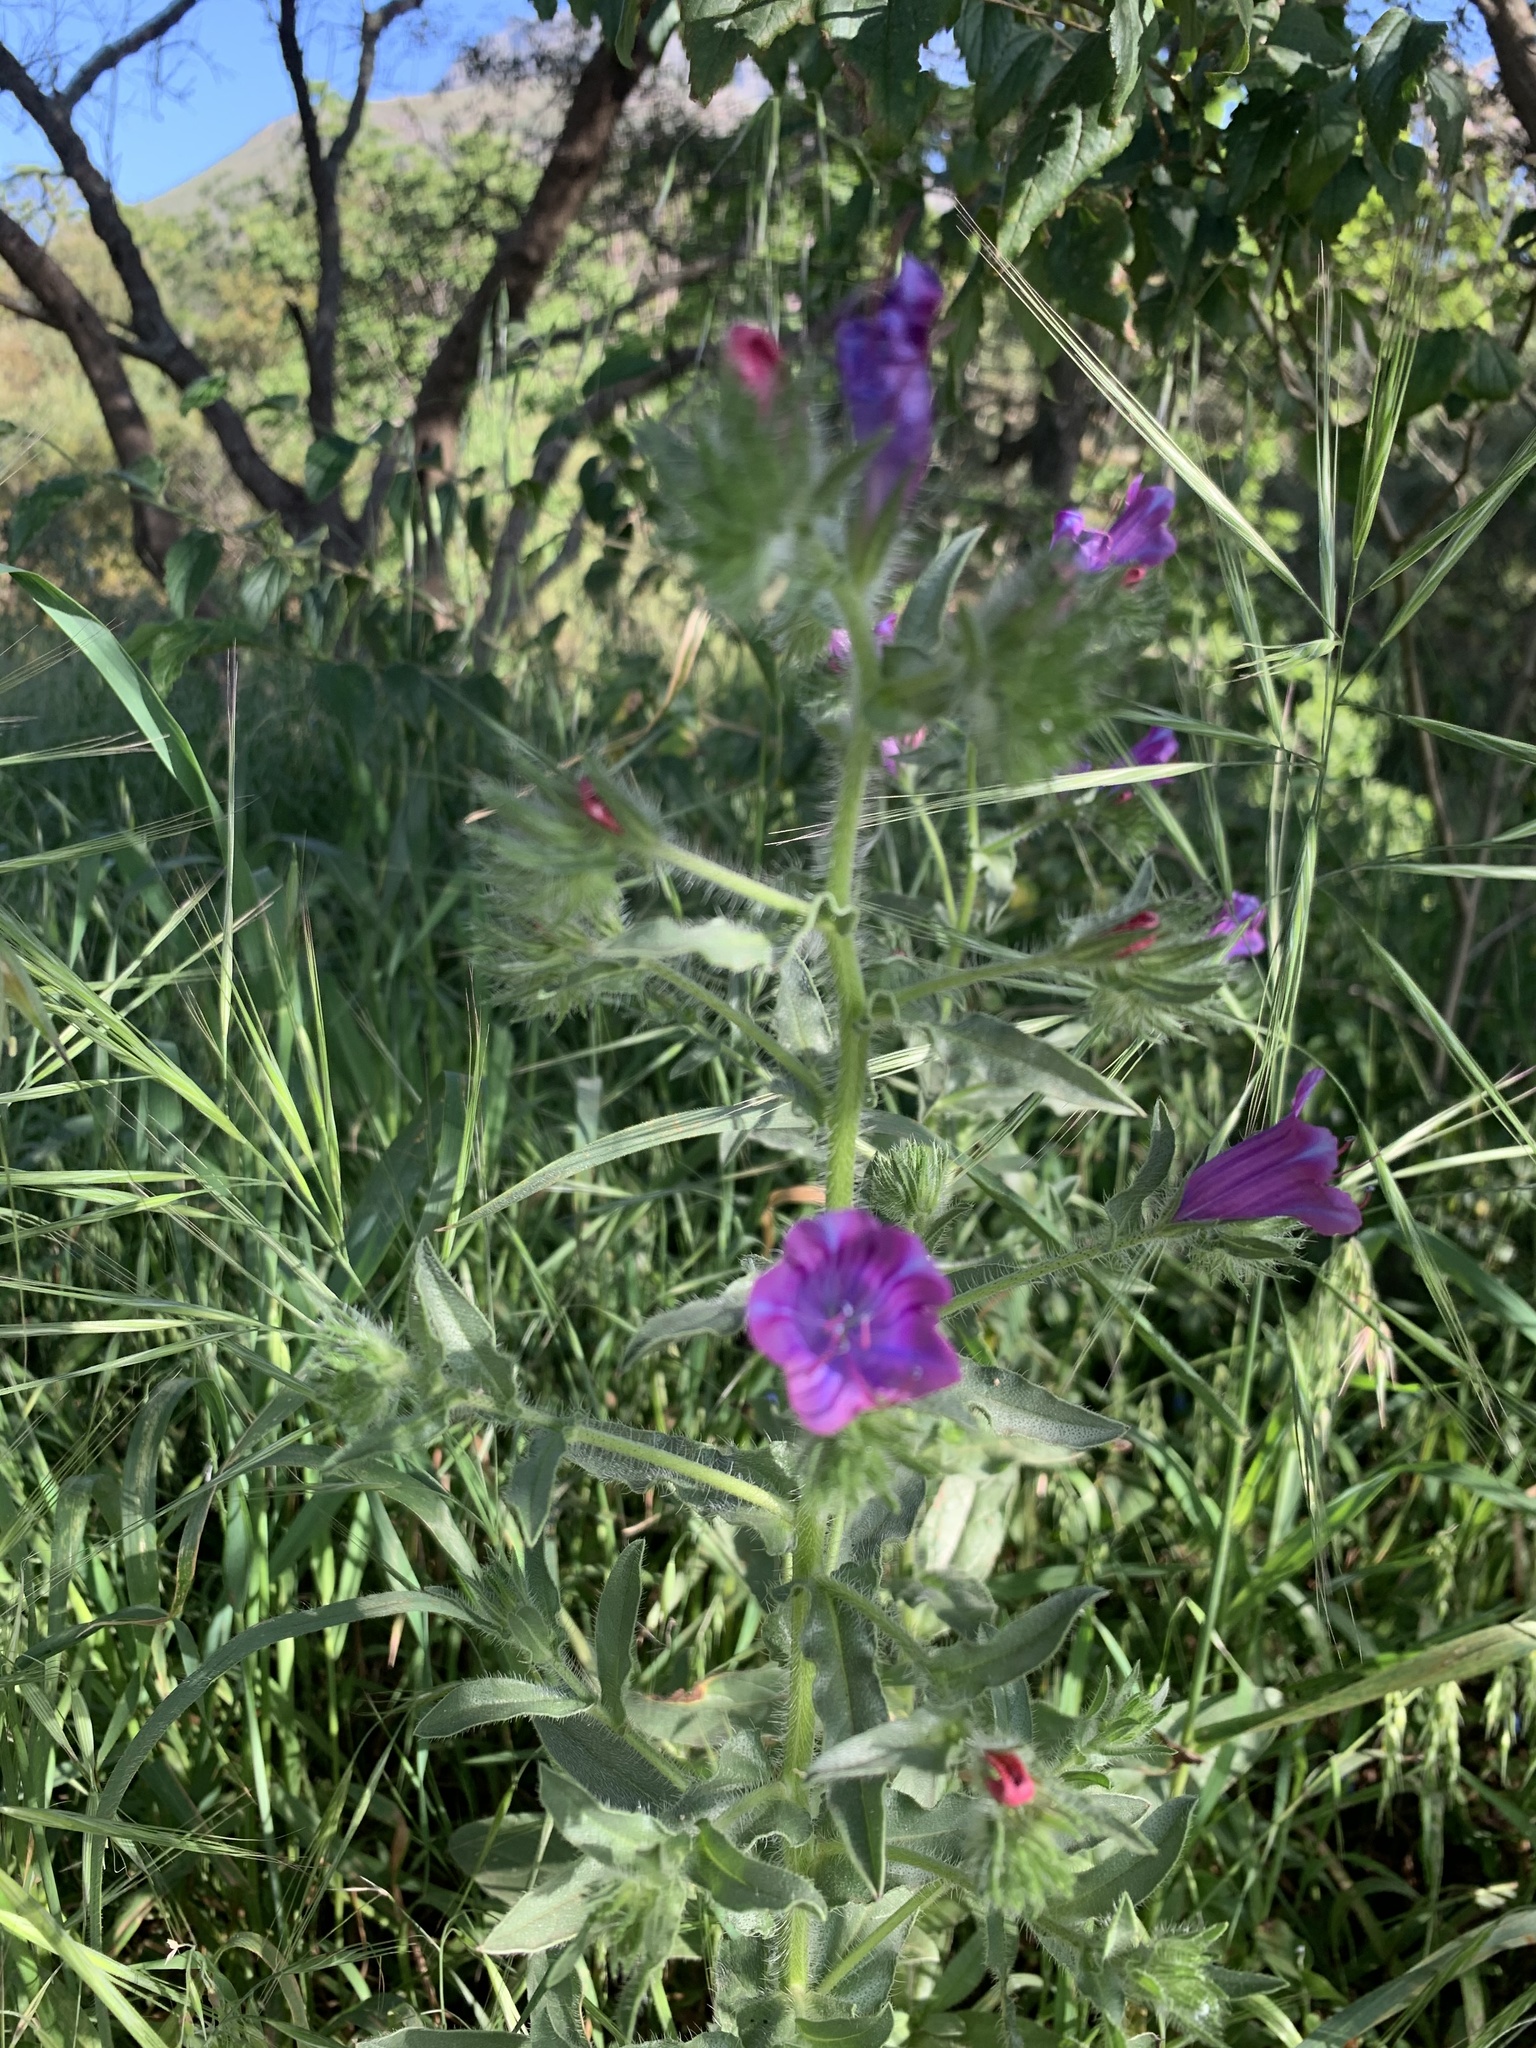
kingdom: Plantae
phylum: Tracheophyta
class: Magnoliopsida
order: Boraginales
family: Boraginaceae
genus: Echium
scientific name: Echium plantagineum
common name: Purple viper's-bugloss
